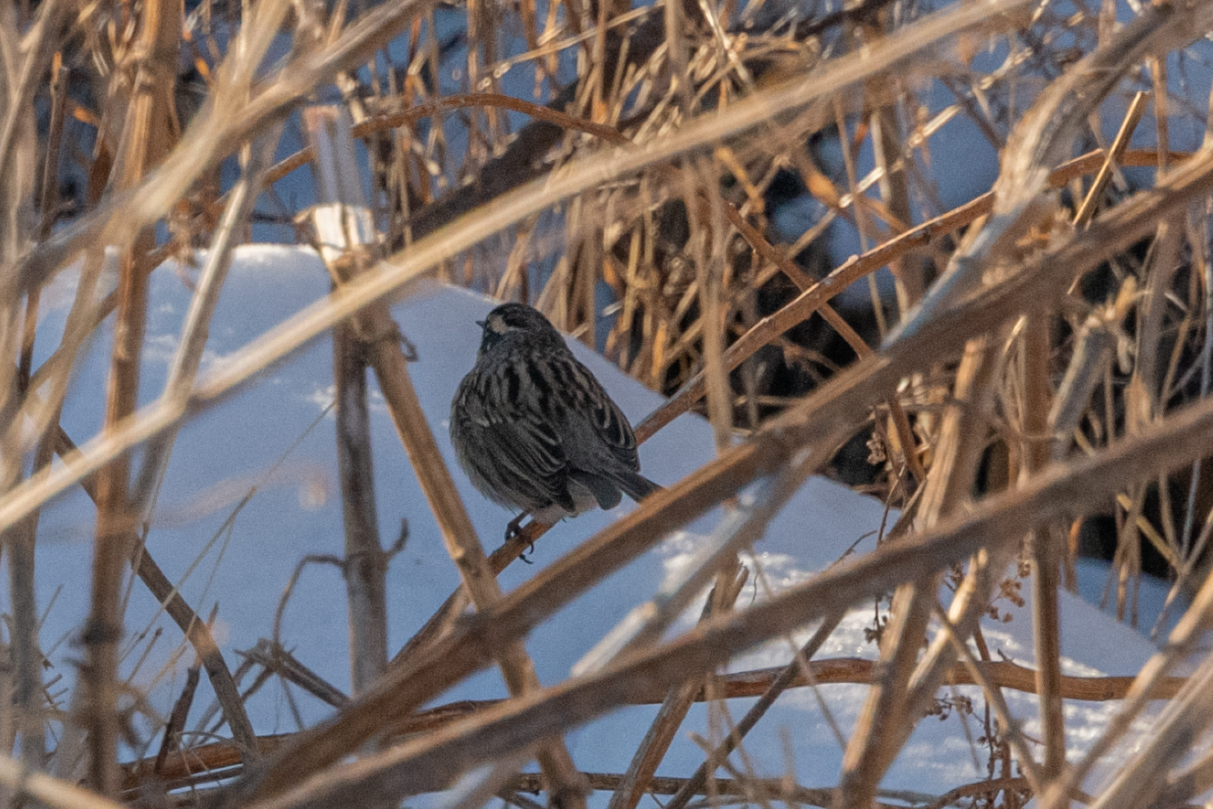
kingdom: Animalia
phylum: Chordata
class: Aves
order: Passeriformes
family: Prunellidae
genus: Prunella
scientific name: Prunella atrogularis
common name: Black-throated accentor
